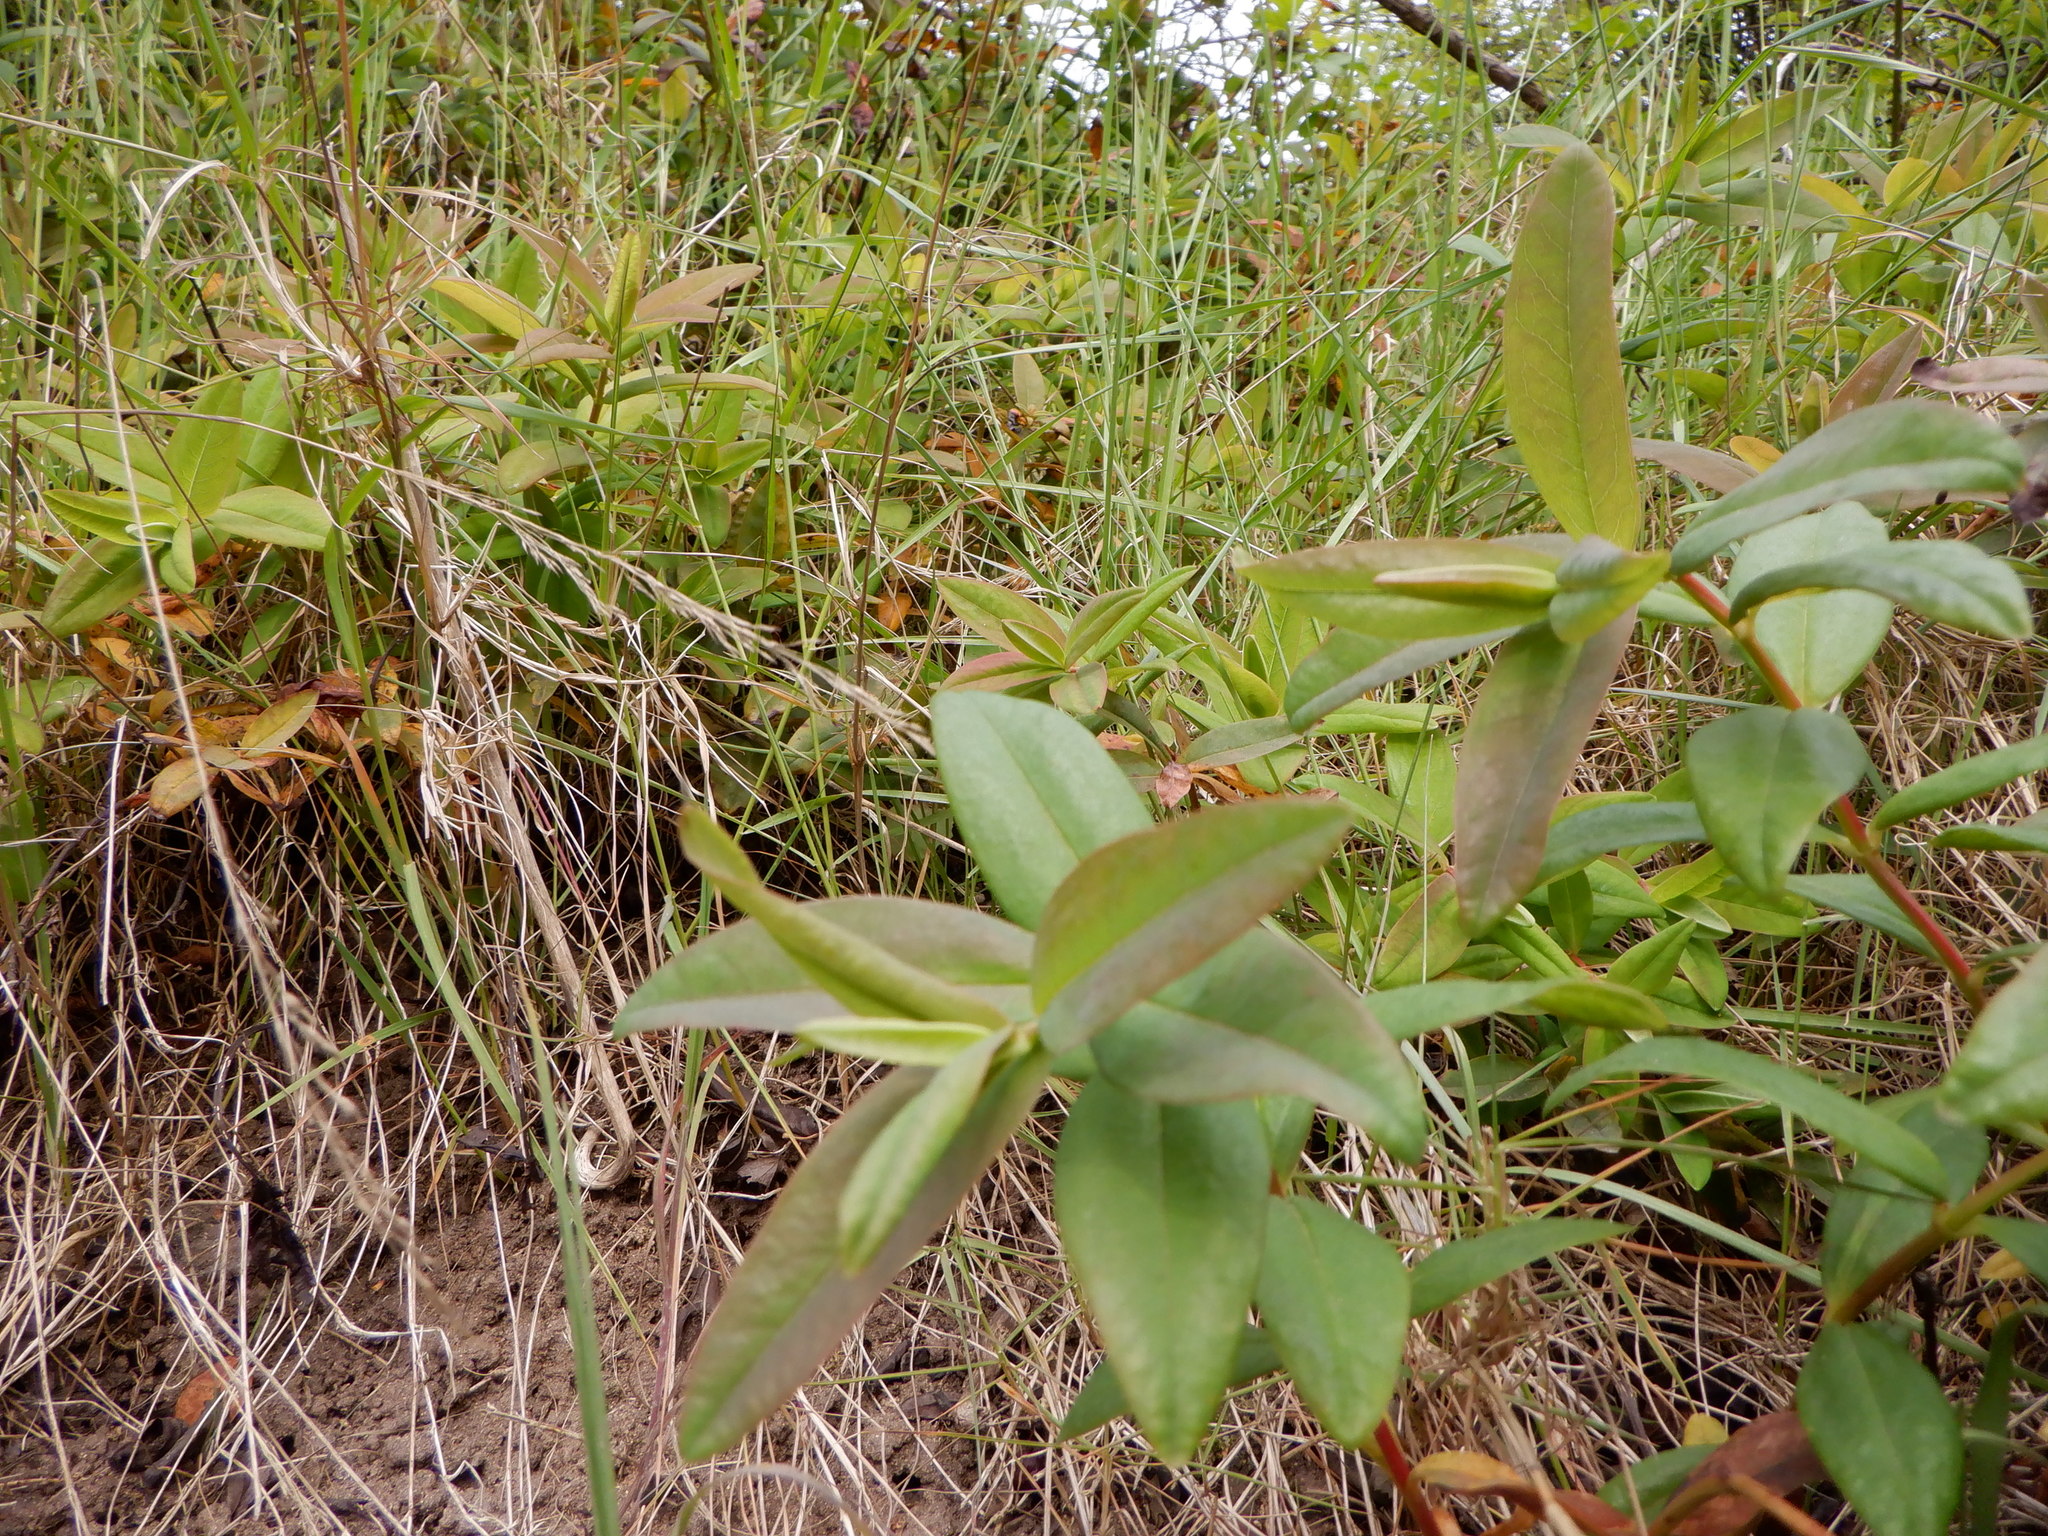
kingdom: Plantae
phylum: Tracheophyta
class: Magnoliopsida
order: Malpighiales
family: Hypericaceae
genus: Hypericum
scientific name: Hypericum androsaemum
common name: Sweet-amber
